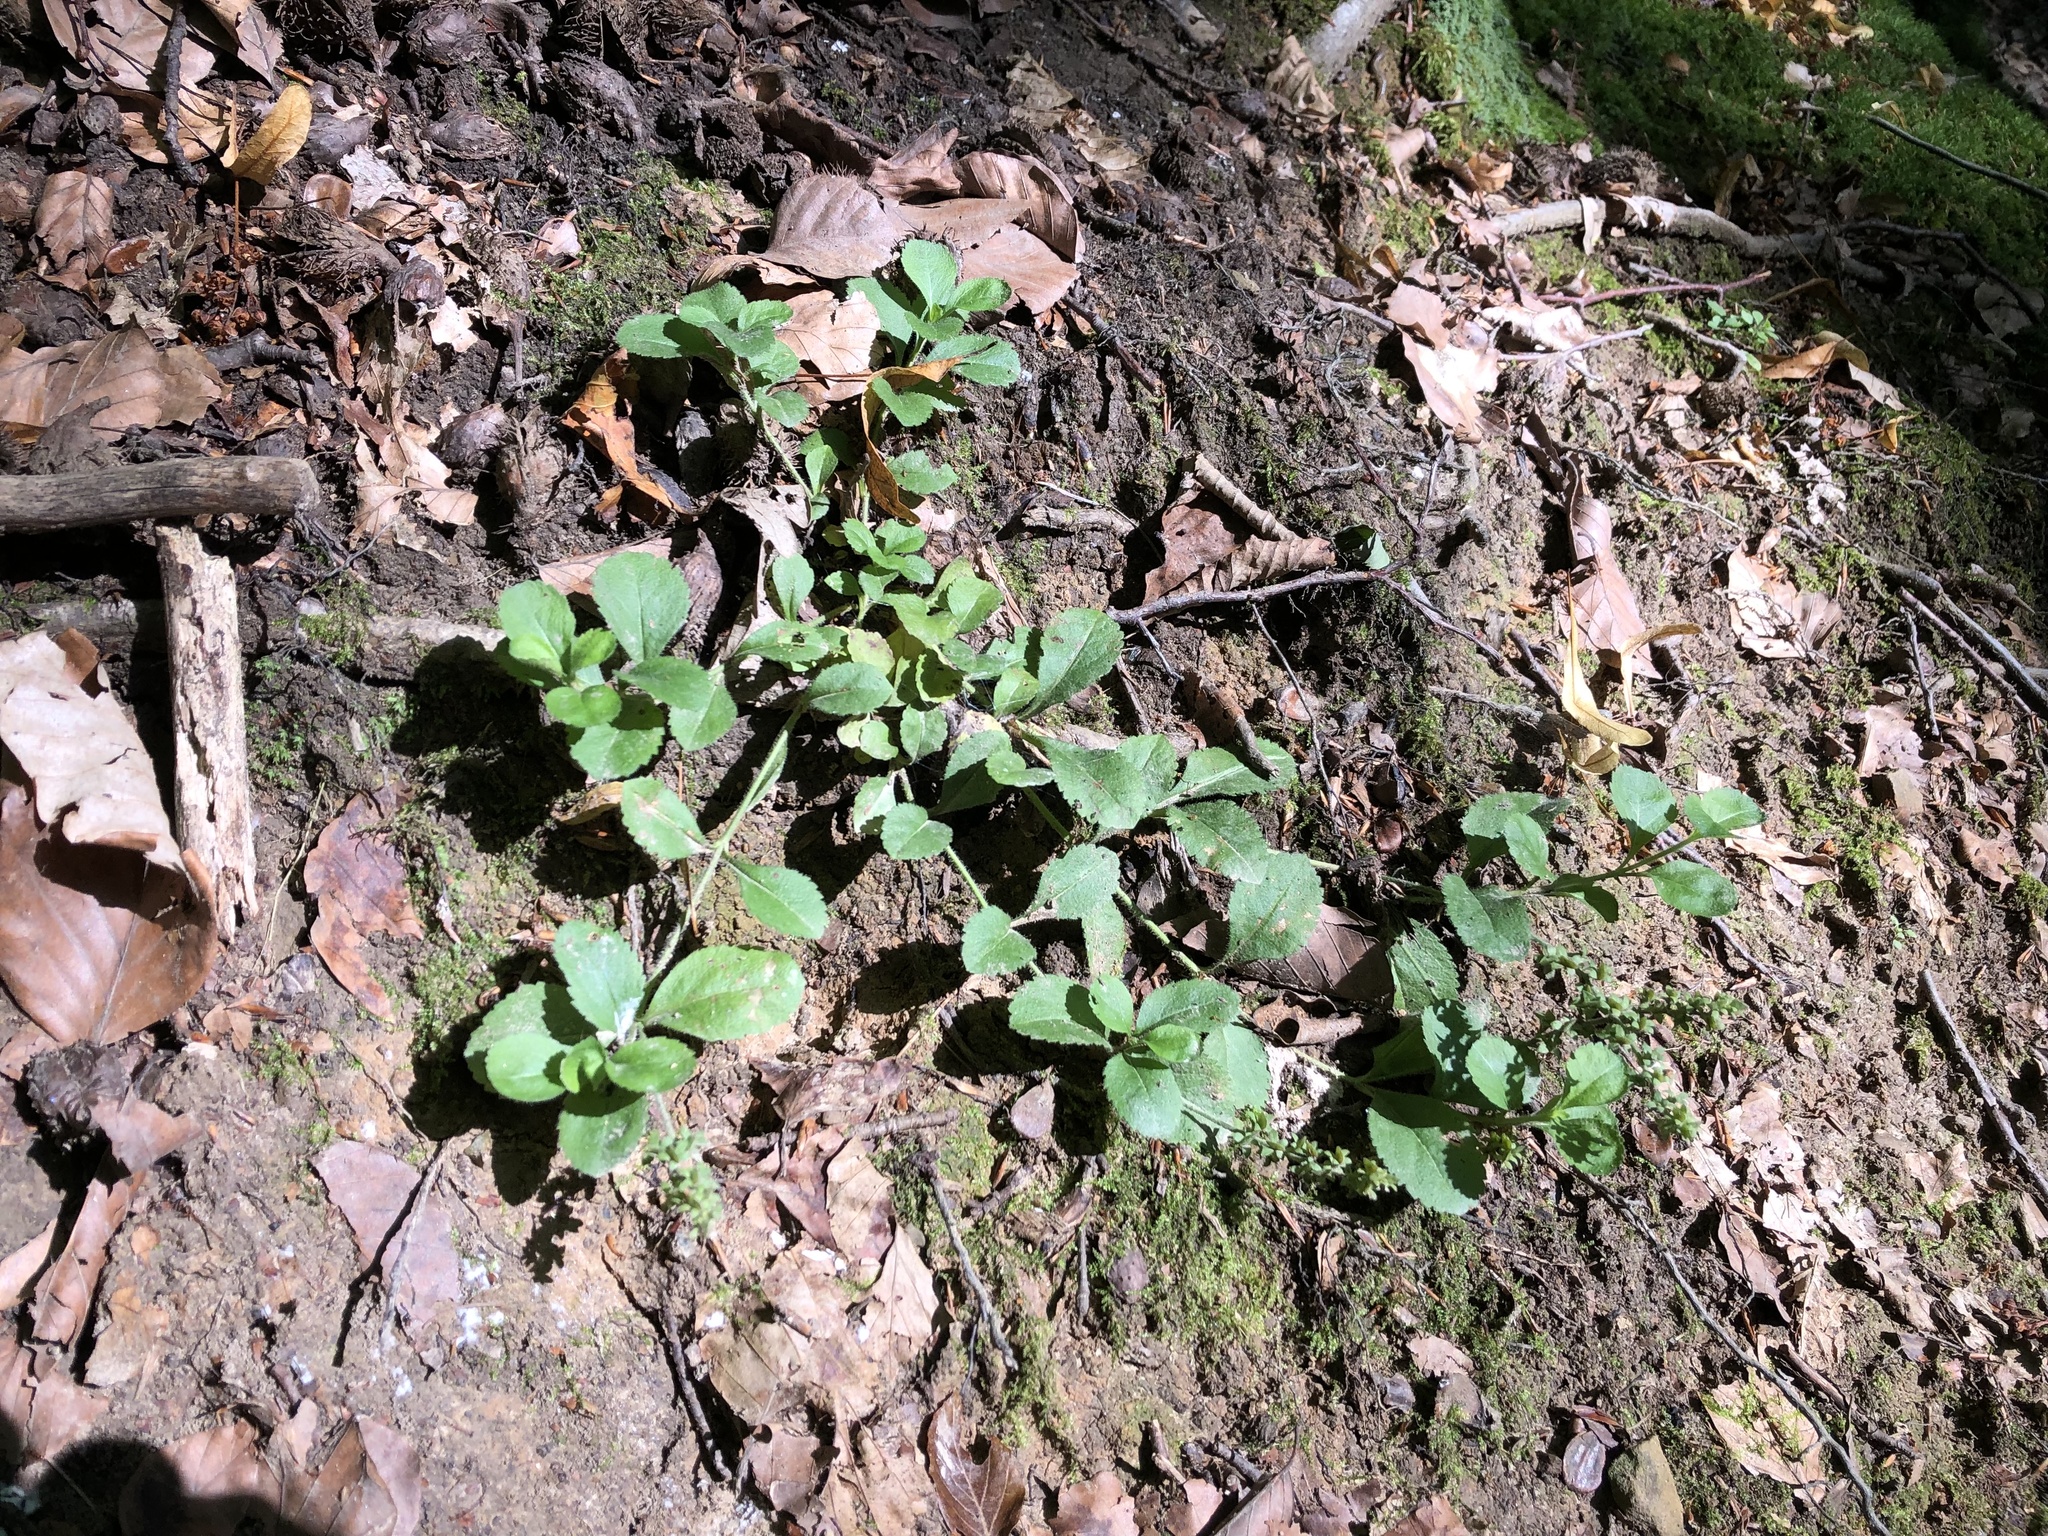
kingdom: Plantae
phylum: Tracheophyta
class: Magnoliopsida
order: Lamiales
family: Plantaginaceae
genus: Veronica
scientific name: Veronica officinalis
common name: Common speedwell
